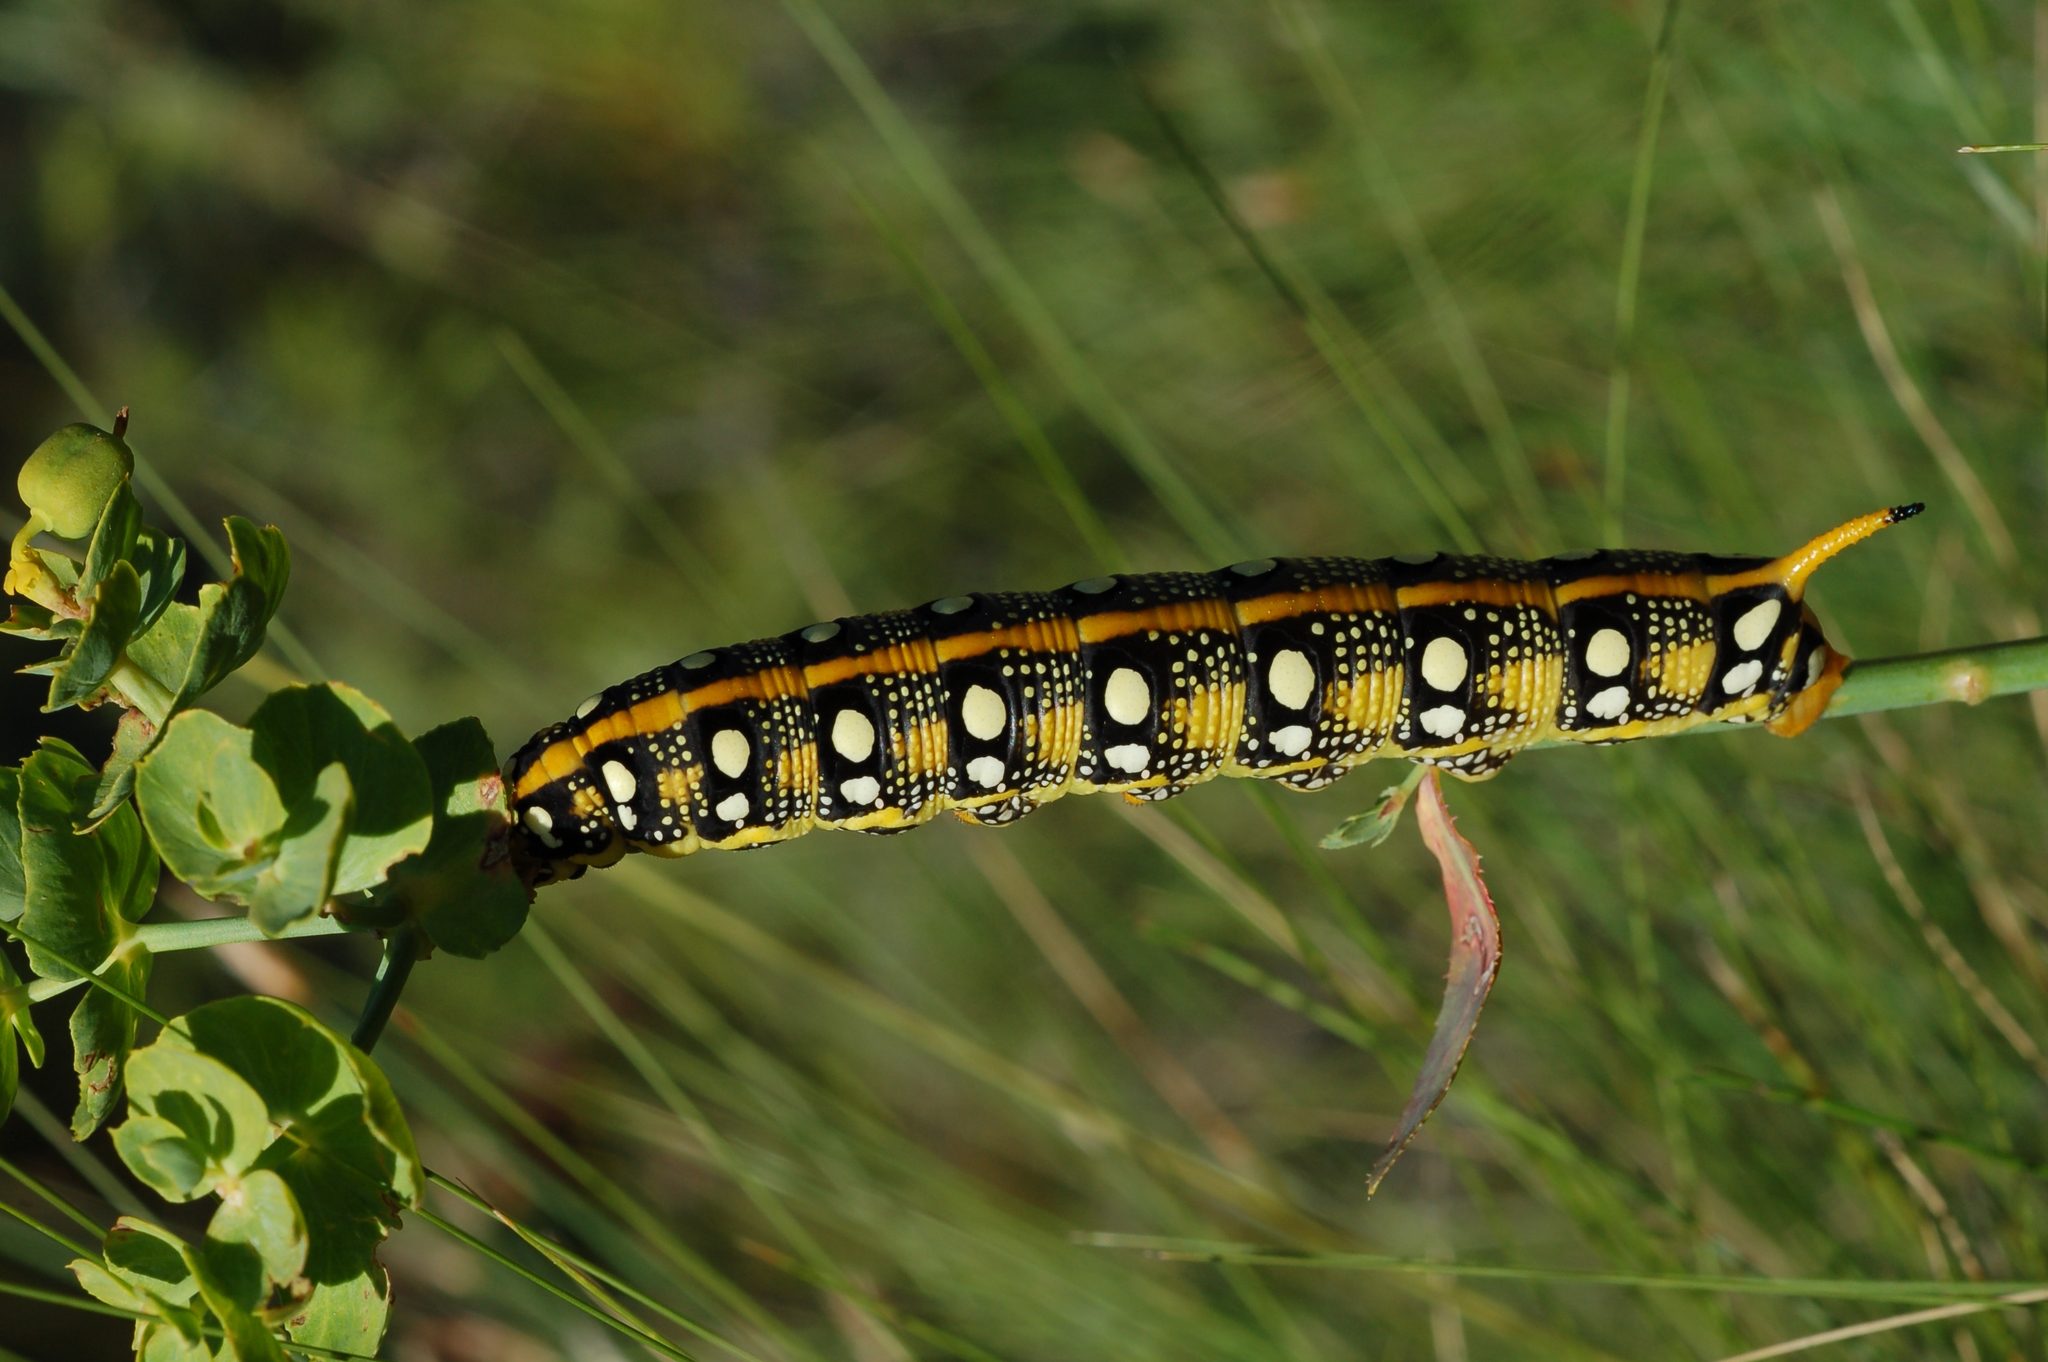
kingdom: Animalia
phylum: Arthropoda
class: Insecta
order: Lepidoptera
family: Sphingidae
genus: Hyles
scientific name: Hyles euphorbiae
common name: Spurge hawk-moth
